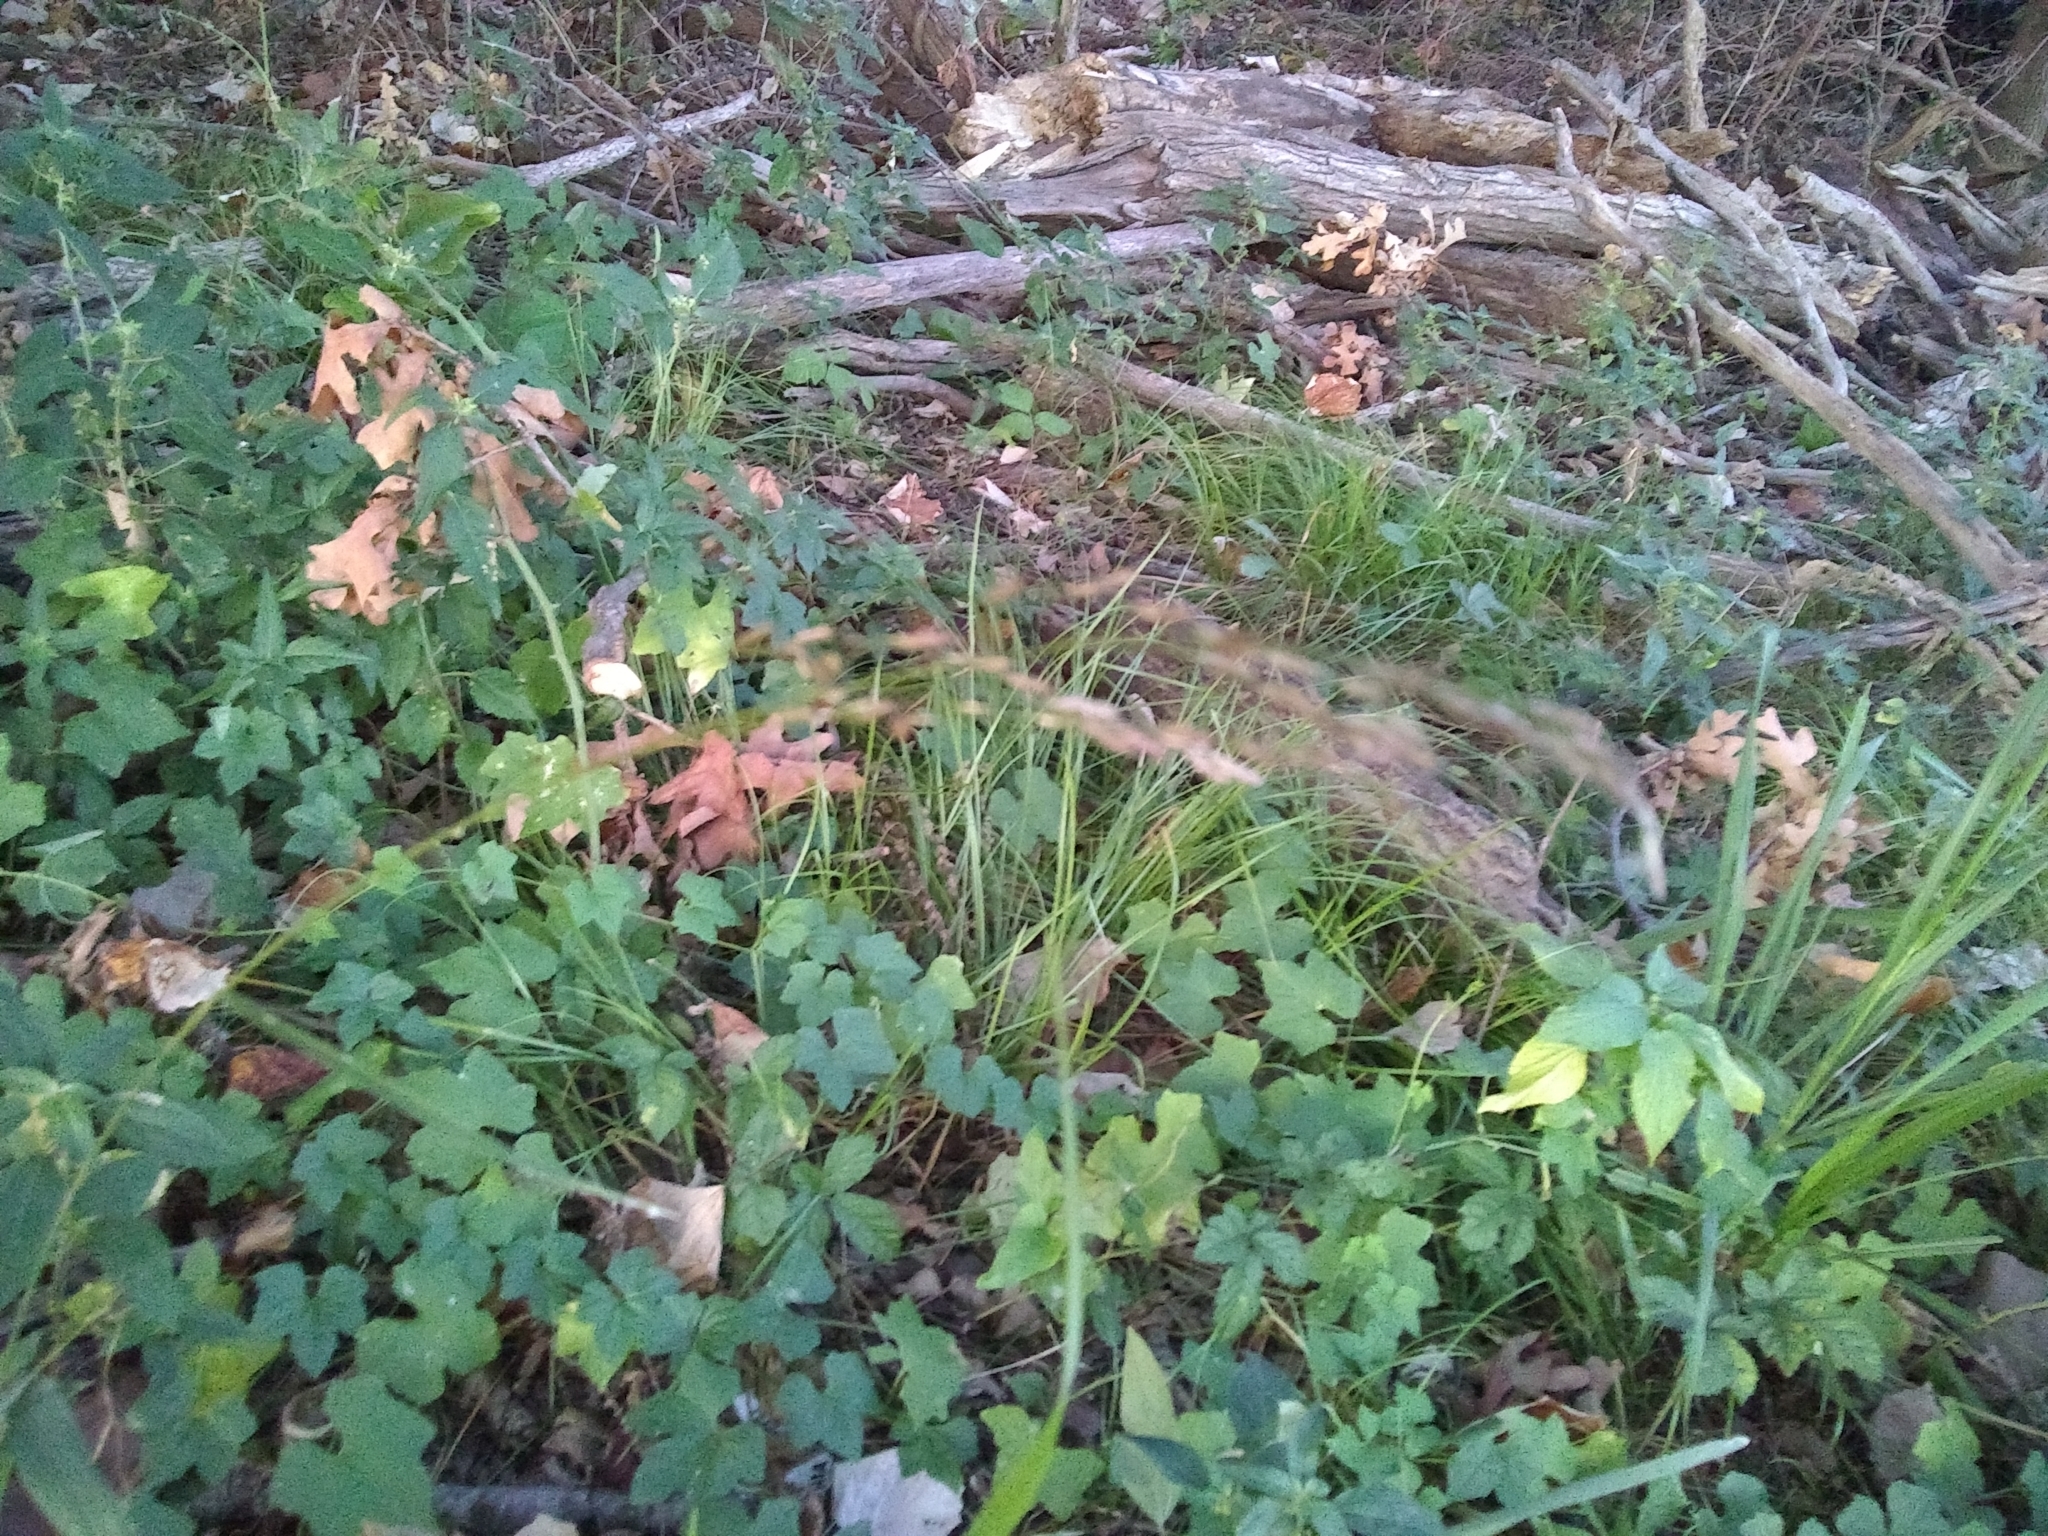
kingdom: Plantae
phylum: Tracheophyta
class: Magnoliopsida
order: Cucurbitales
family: Cucurbitaceae
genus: Melothria
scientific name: Melothria pendula
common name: Creeping-cucumber
